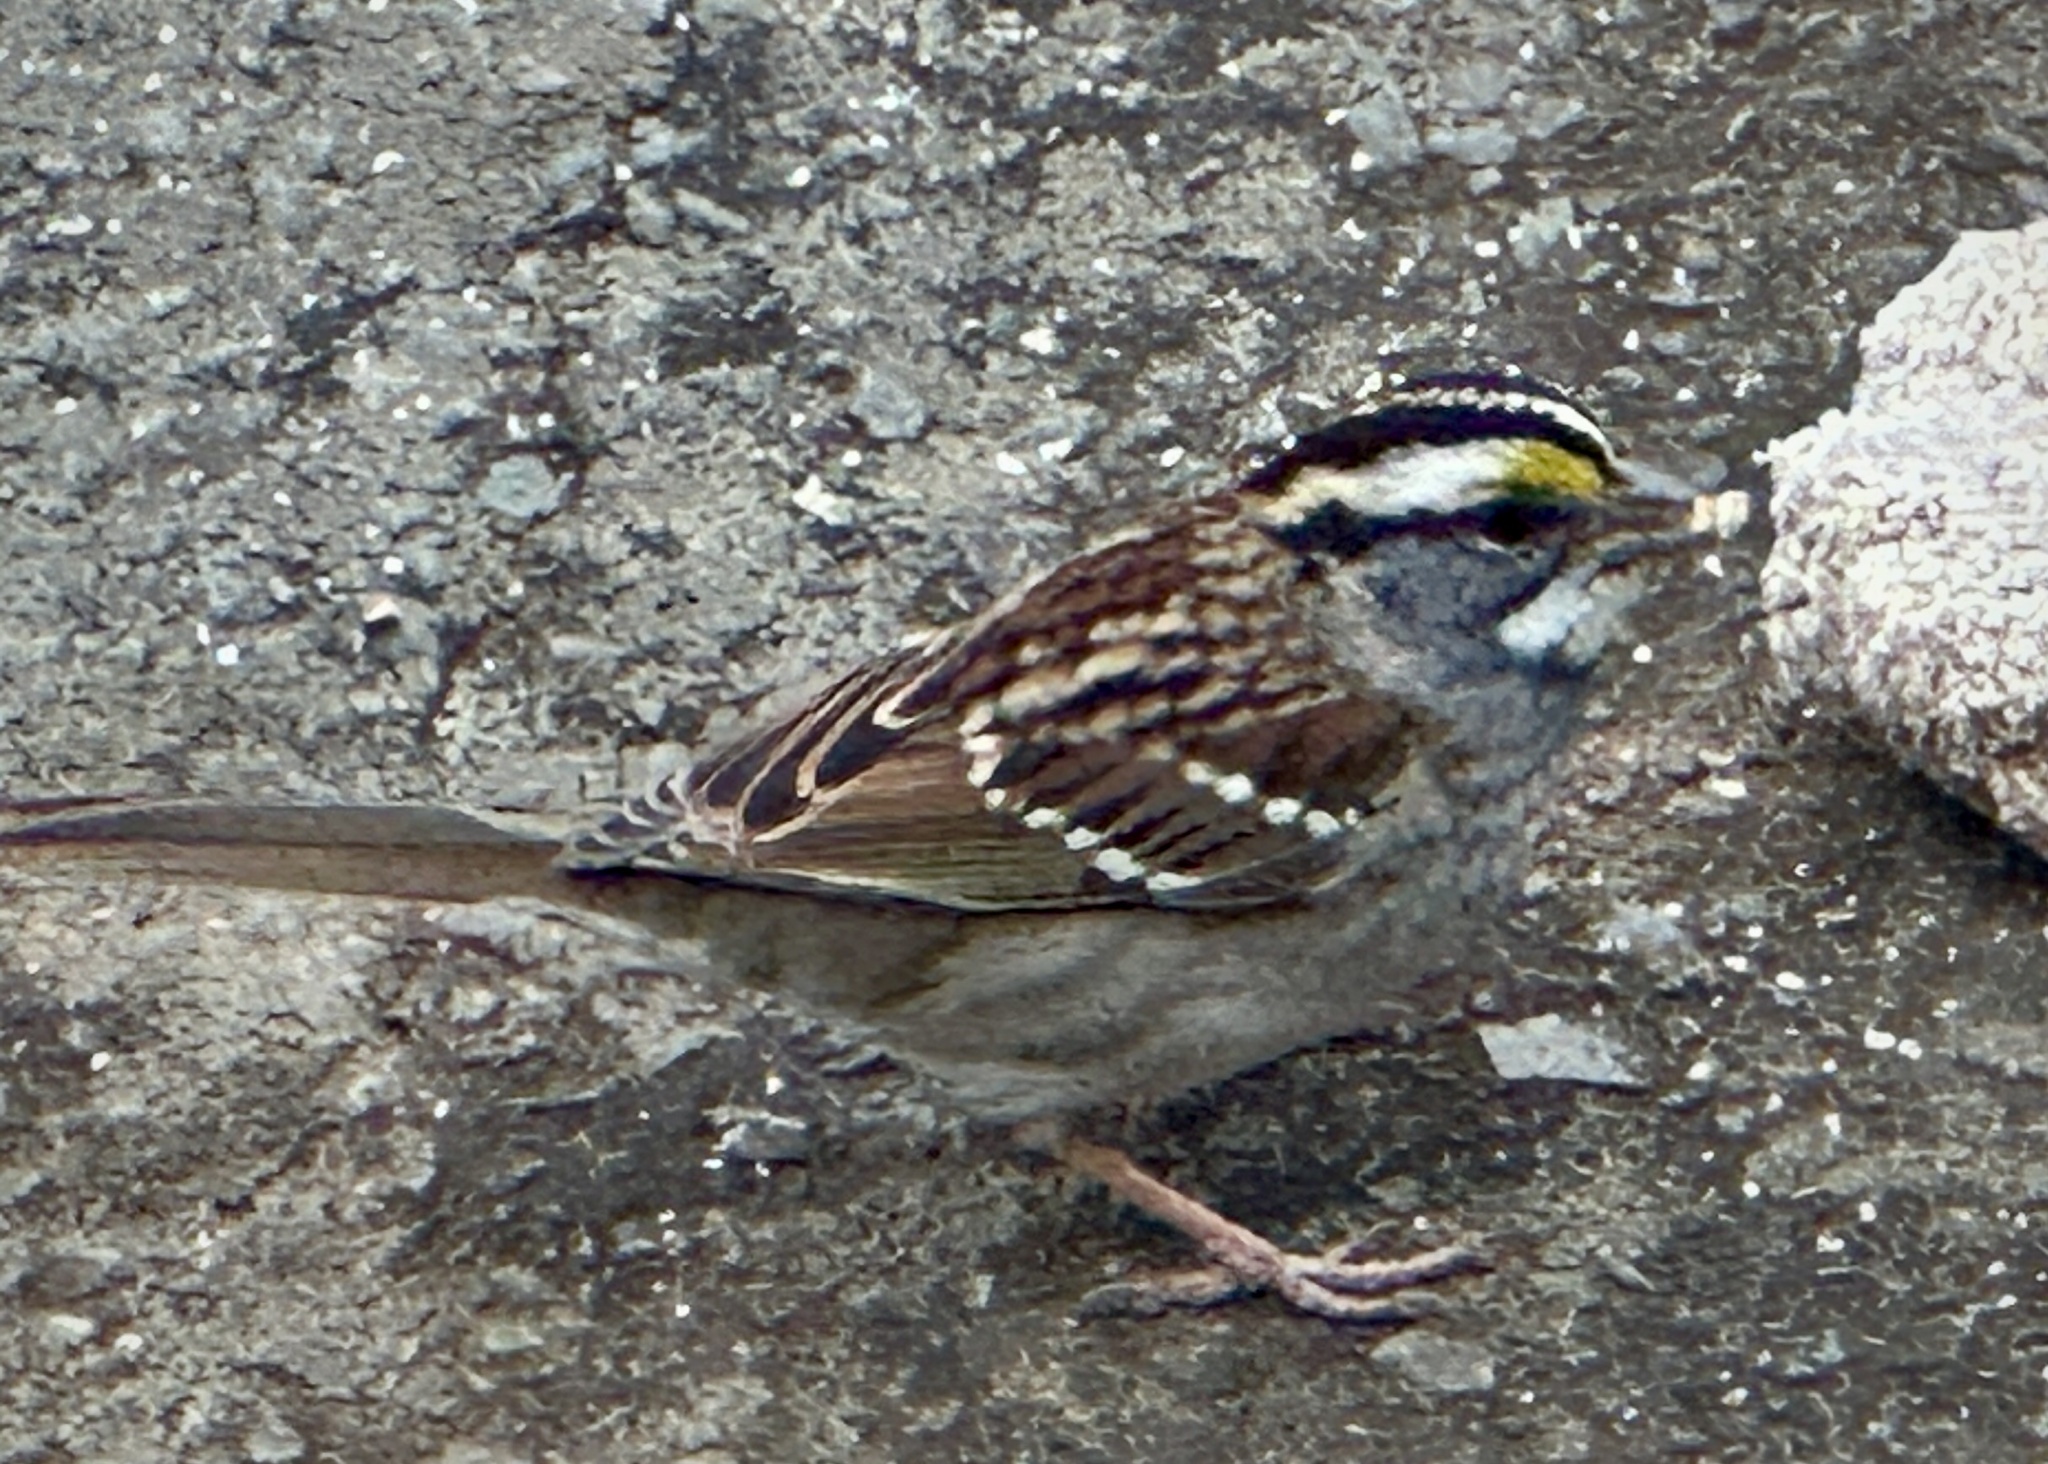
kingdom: Animalia
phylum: Chordata
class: Aves
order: Passeriformes
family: Passerellidae
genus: Zonotrichia
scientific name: Zonotrichia albicollis
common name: White-throated sparrow
